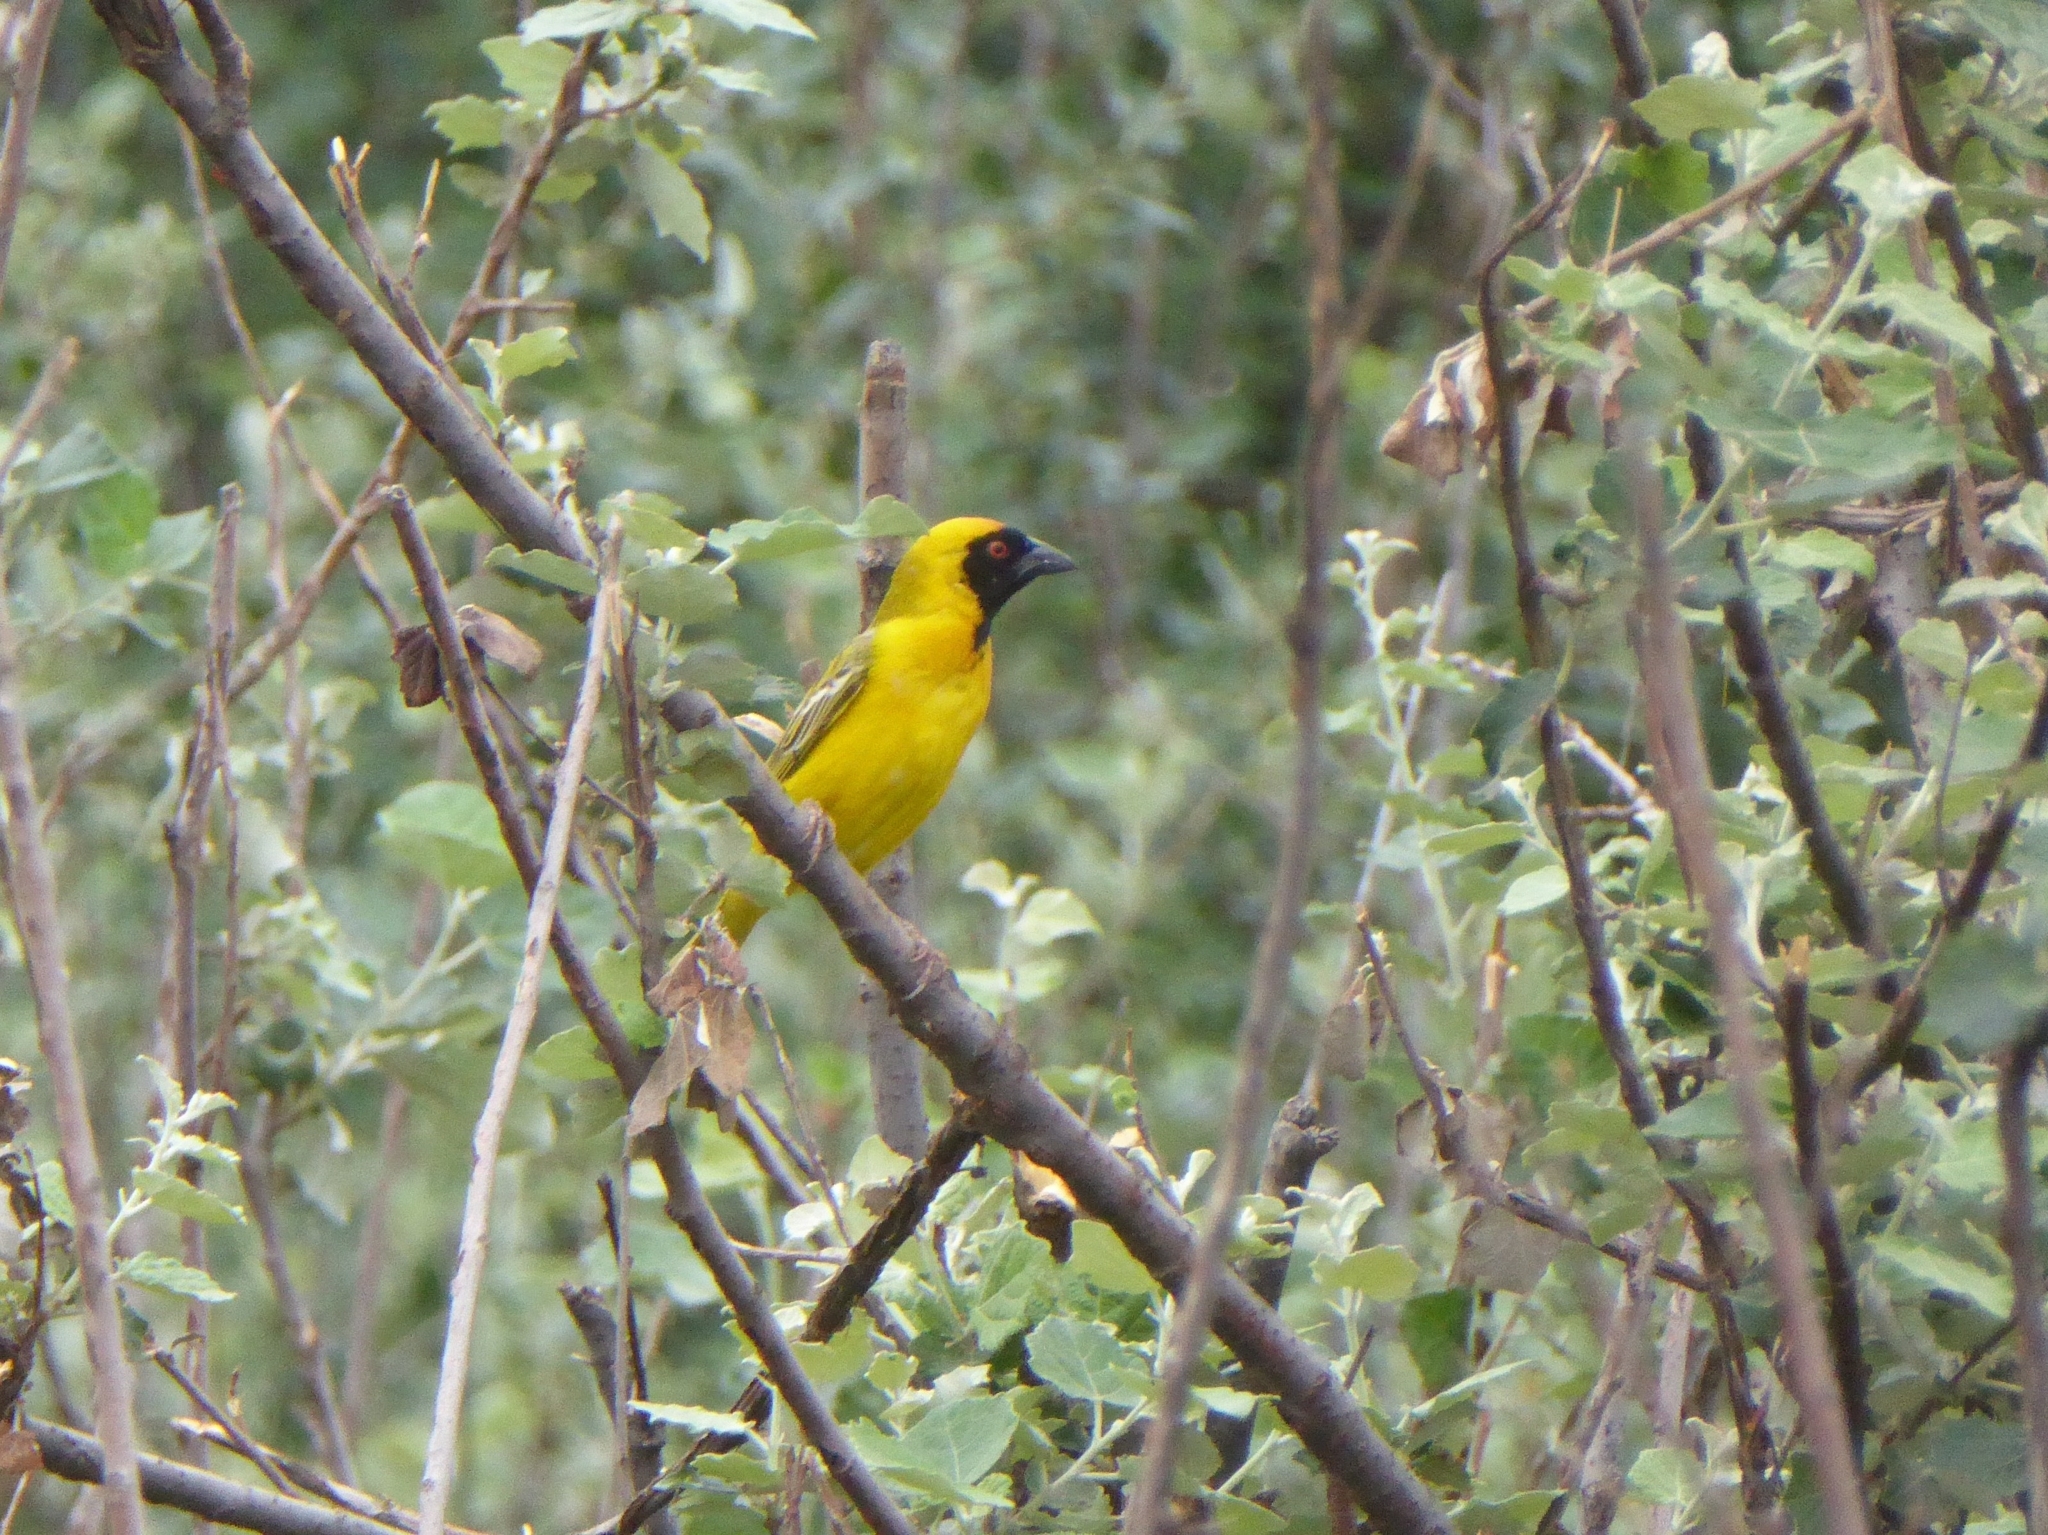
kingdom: Animalia
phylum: Chordata
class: Aves
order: Passeriformes
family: Ploceidae
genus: Ploceus
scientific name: Ploceus velatus
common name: Southern masked weaver
